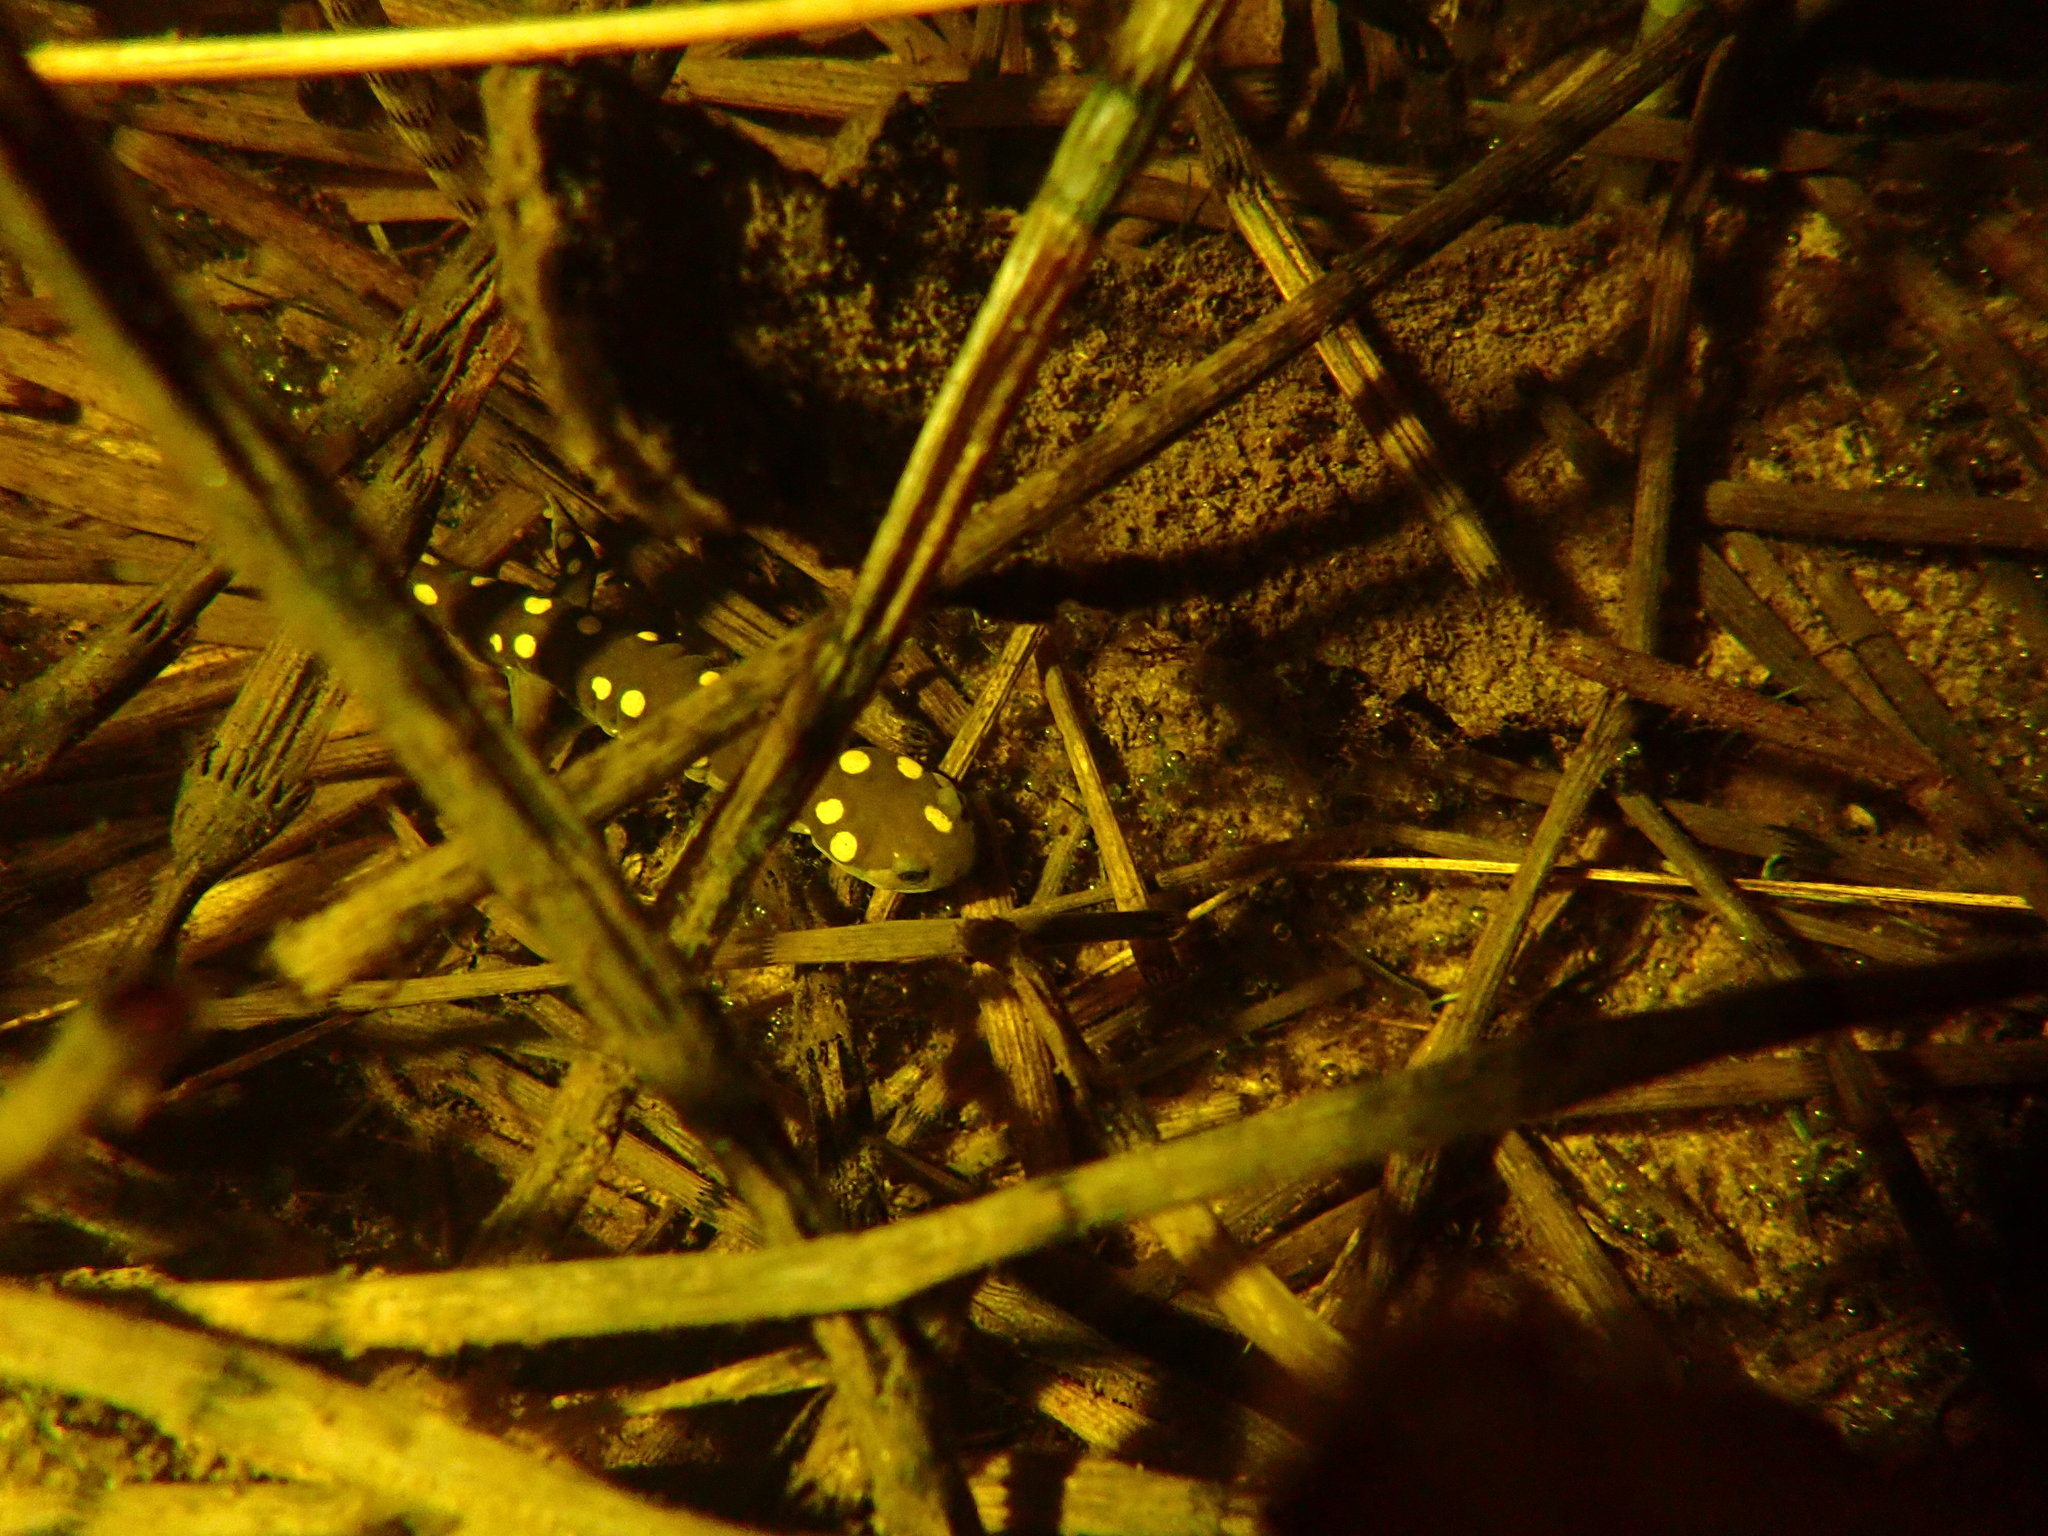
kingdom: Animalia
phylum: Chordata
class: Amphibia
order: Caudata
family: Ambystomatidae
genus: Ambystoma
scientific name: Ambystoma maculatum
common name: Spotted salamander
